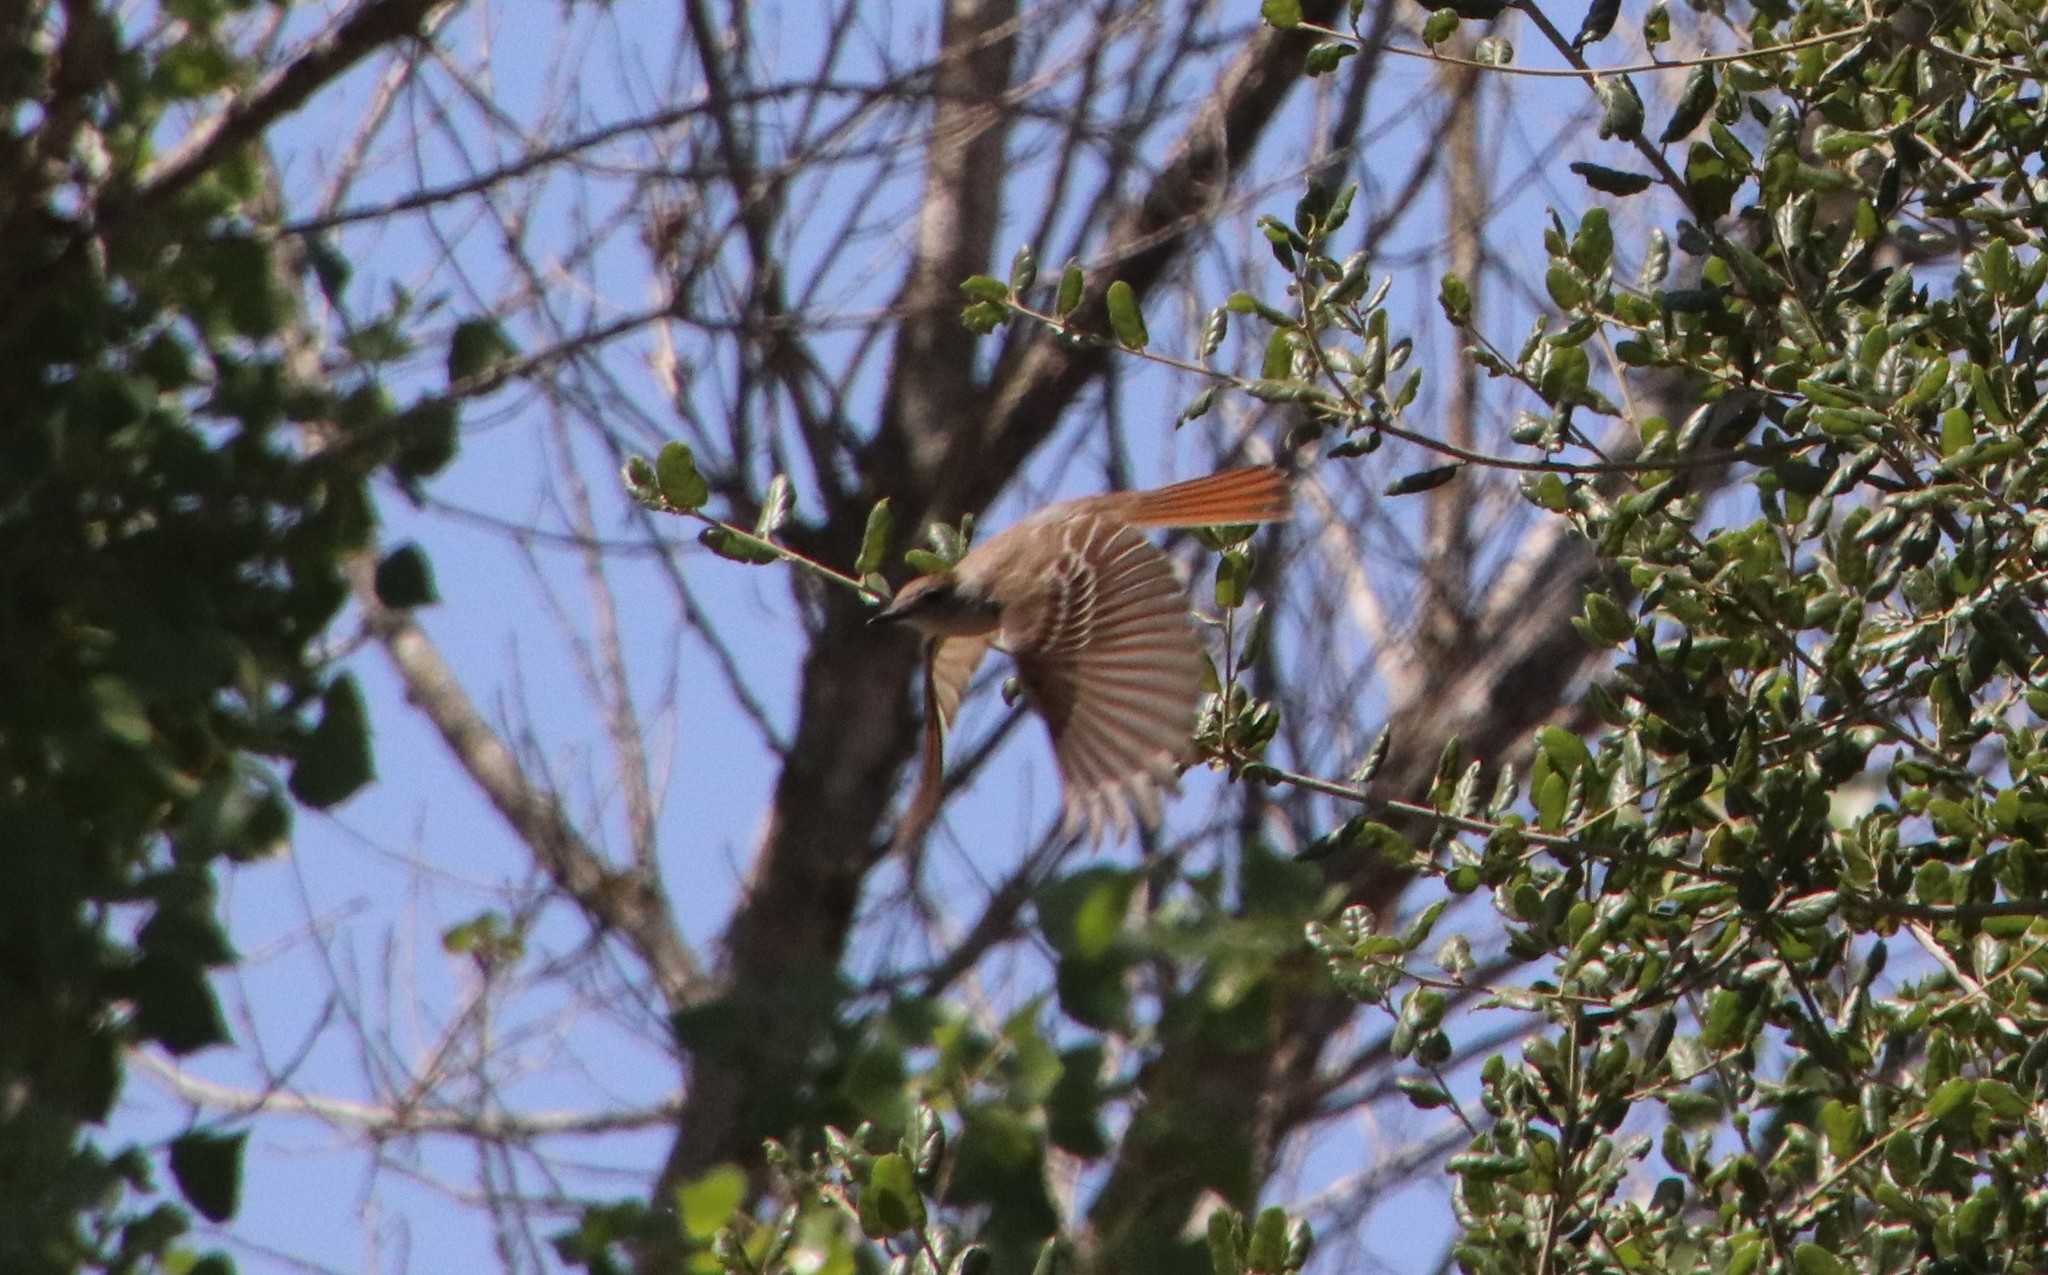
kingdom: Animalia
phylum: Chordata
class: Aves
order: Passeriformes
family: Tyrannidae
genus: Myiarchus
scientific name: Myiarchus cinerascens
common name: Ash-throated flycatcher
